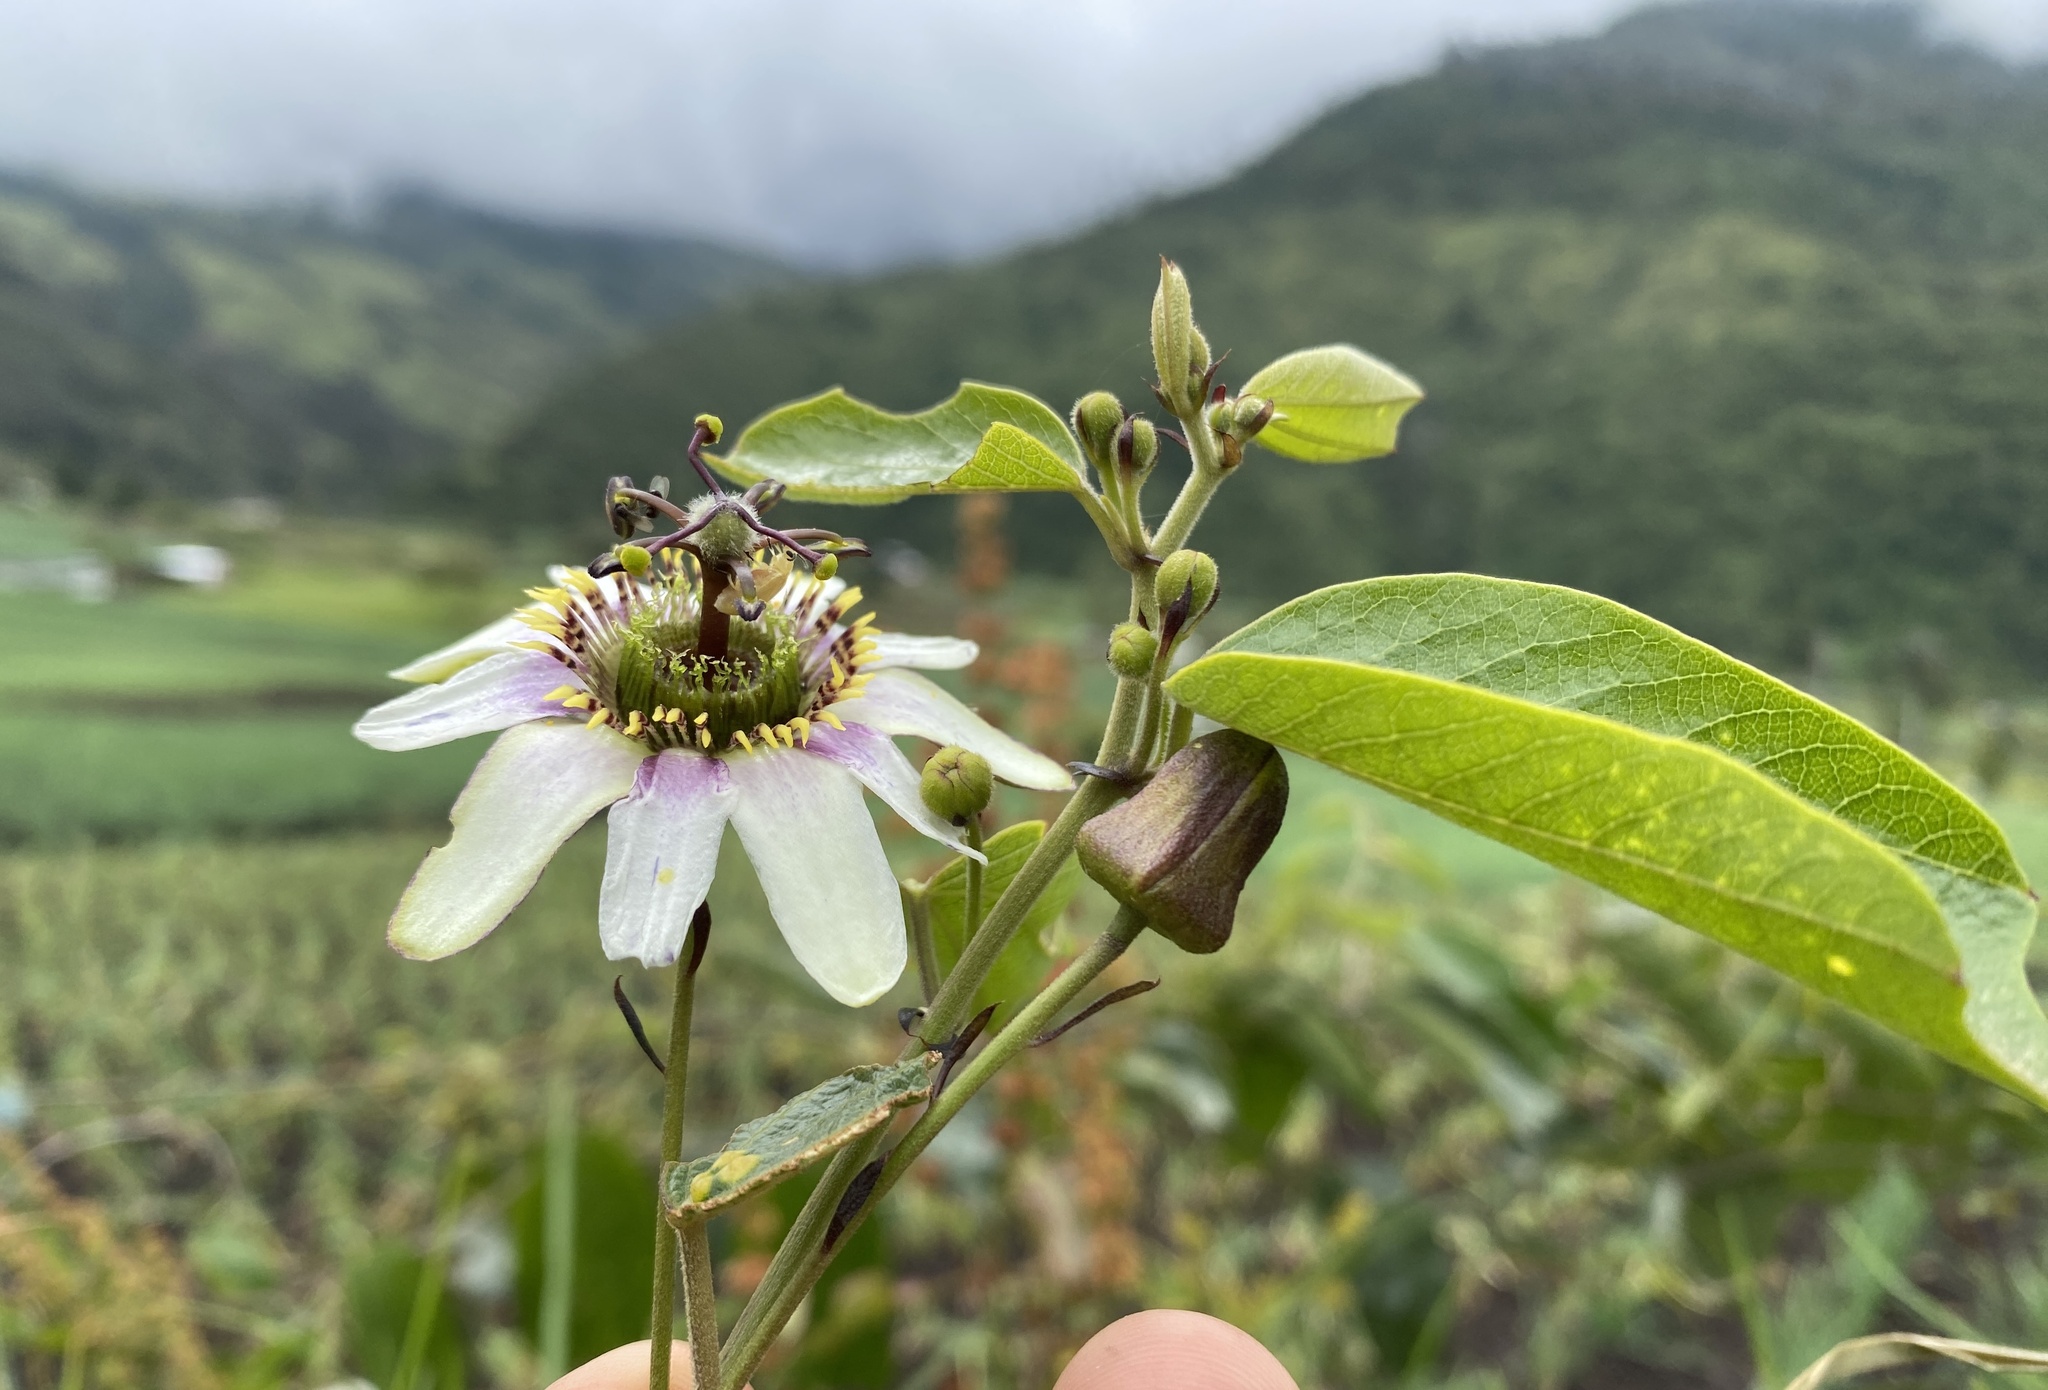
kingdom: Plantae
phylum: Tracheophyta
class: Magnoliopsida
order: Malpighiales
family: Passifloraceae
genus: Passiflora
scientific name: Passiflora alnifolia
